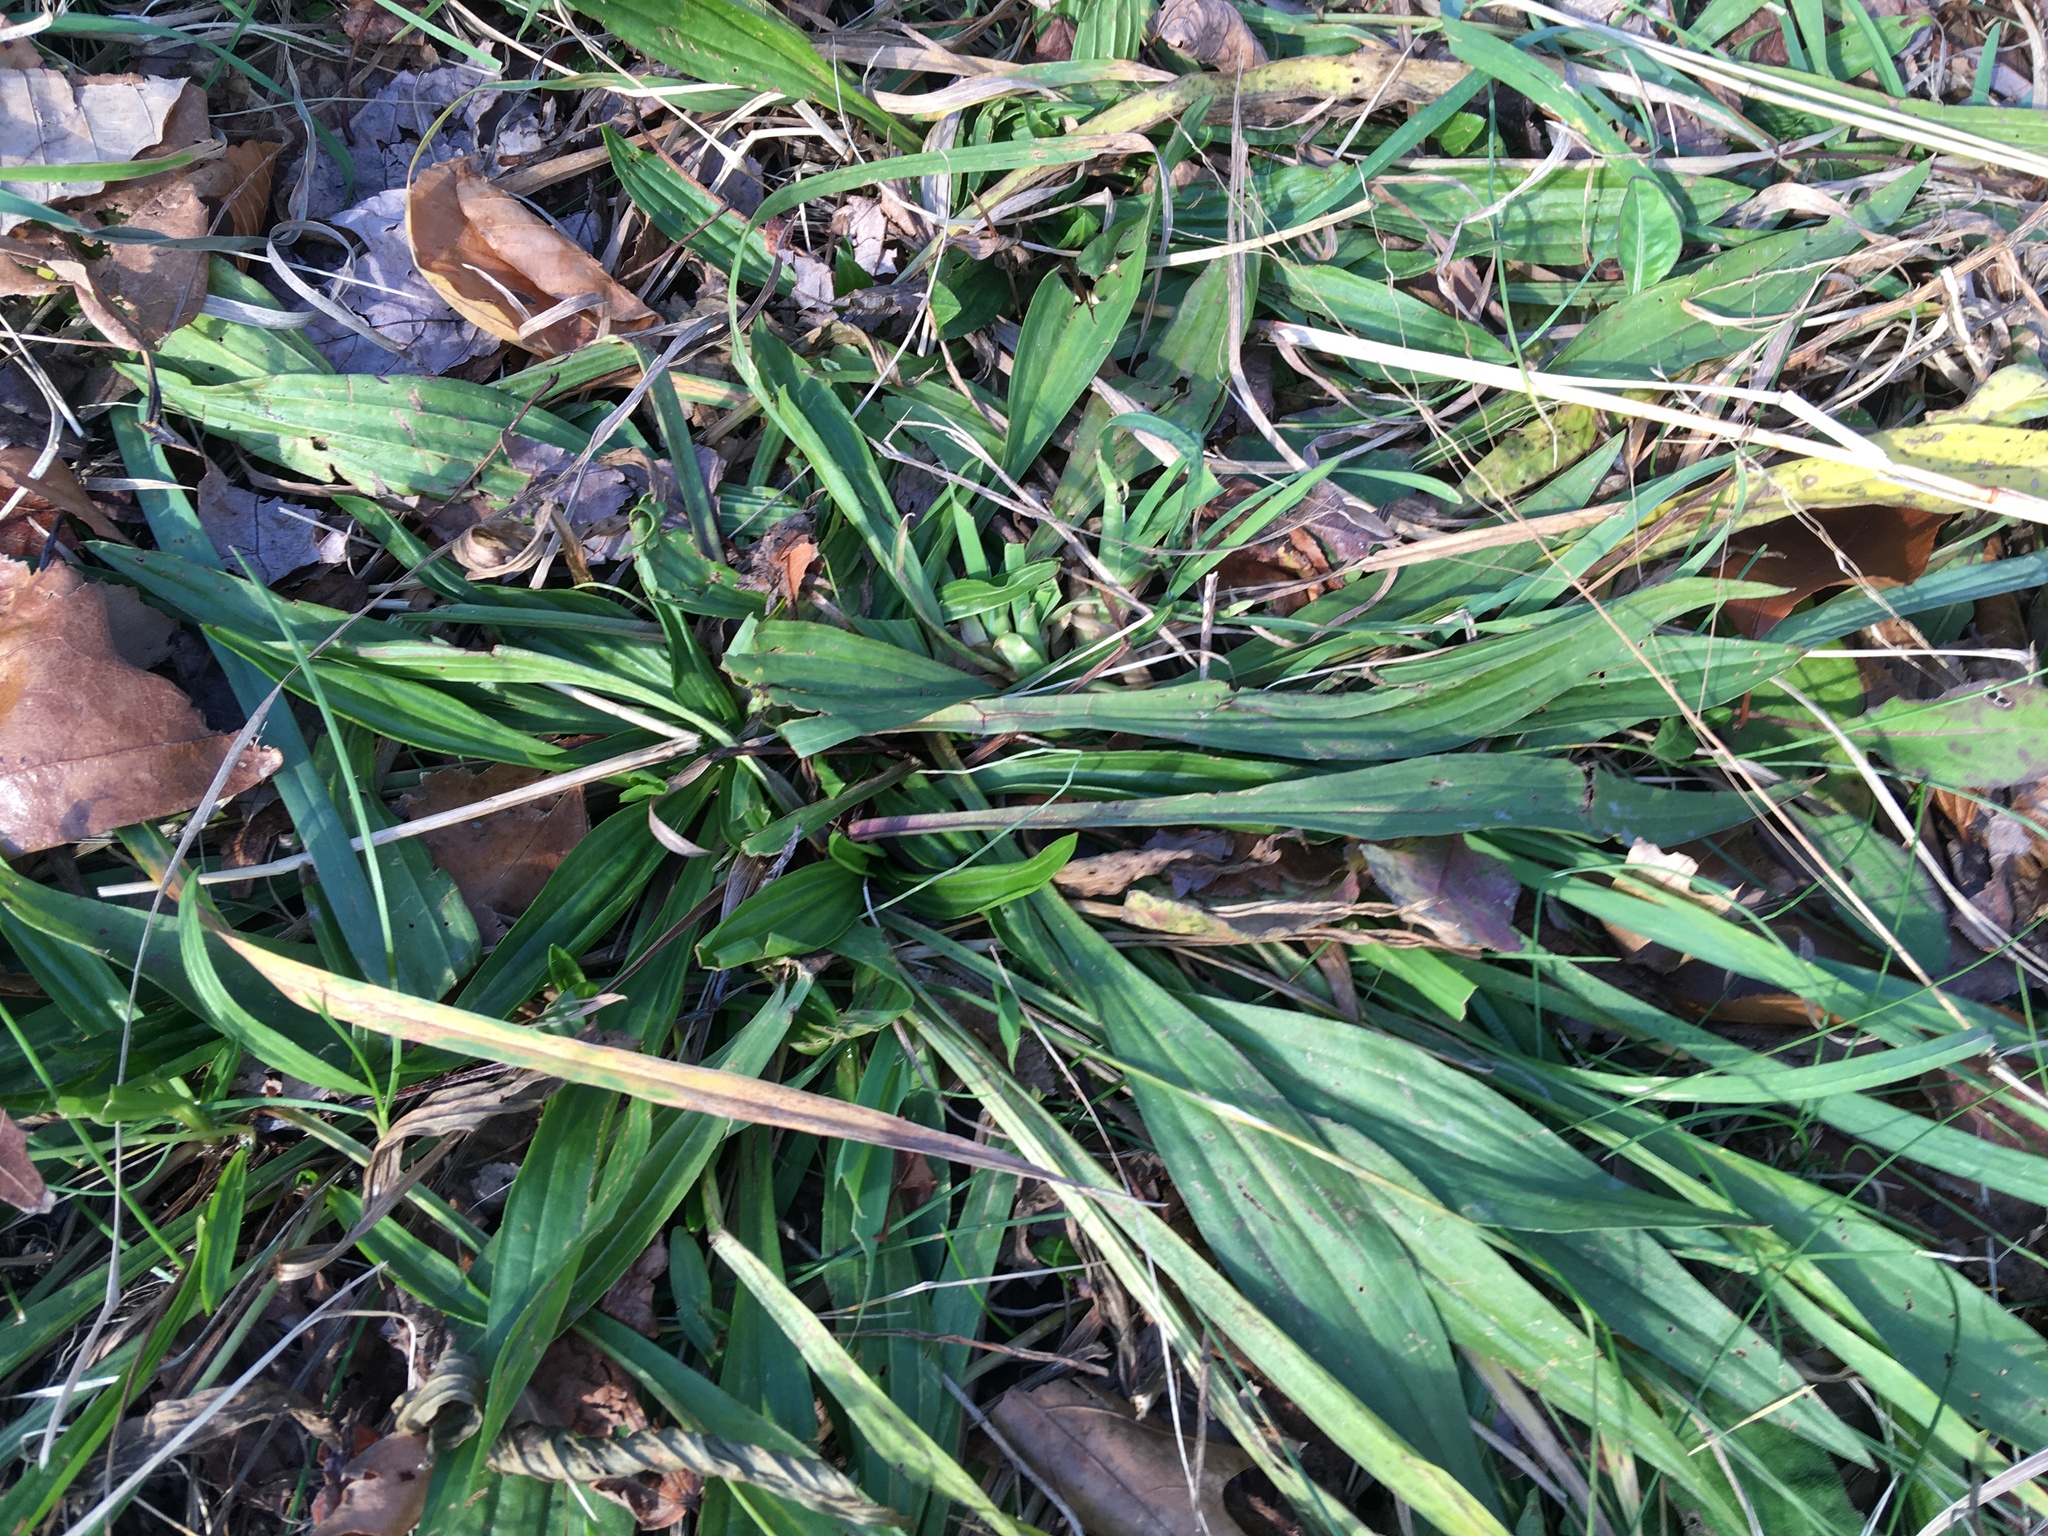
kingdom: Plantae
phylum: Tracheophyta
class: Magnoliopsida
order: Lamiales
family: Plantaginaceae
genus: Plantago
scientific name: Plantago lanceolata
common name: Ribwort plantain
